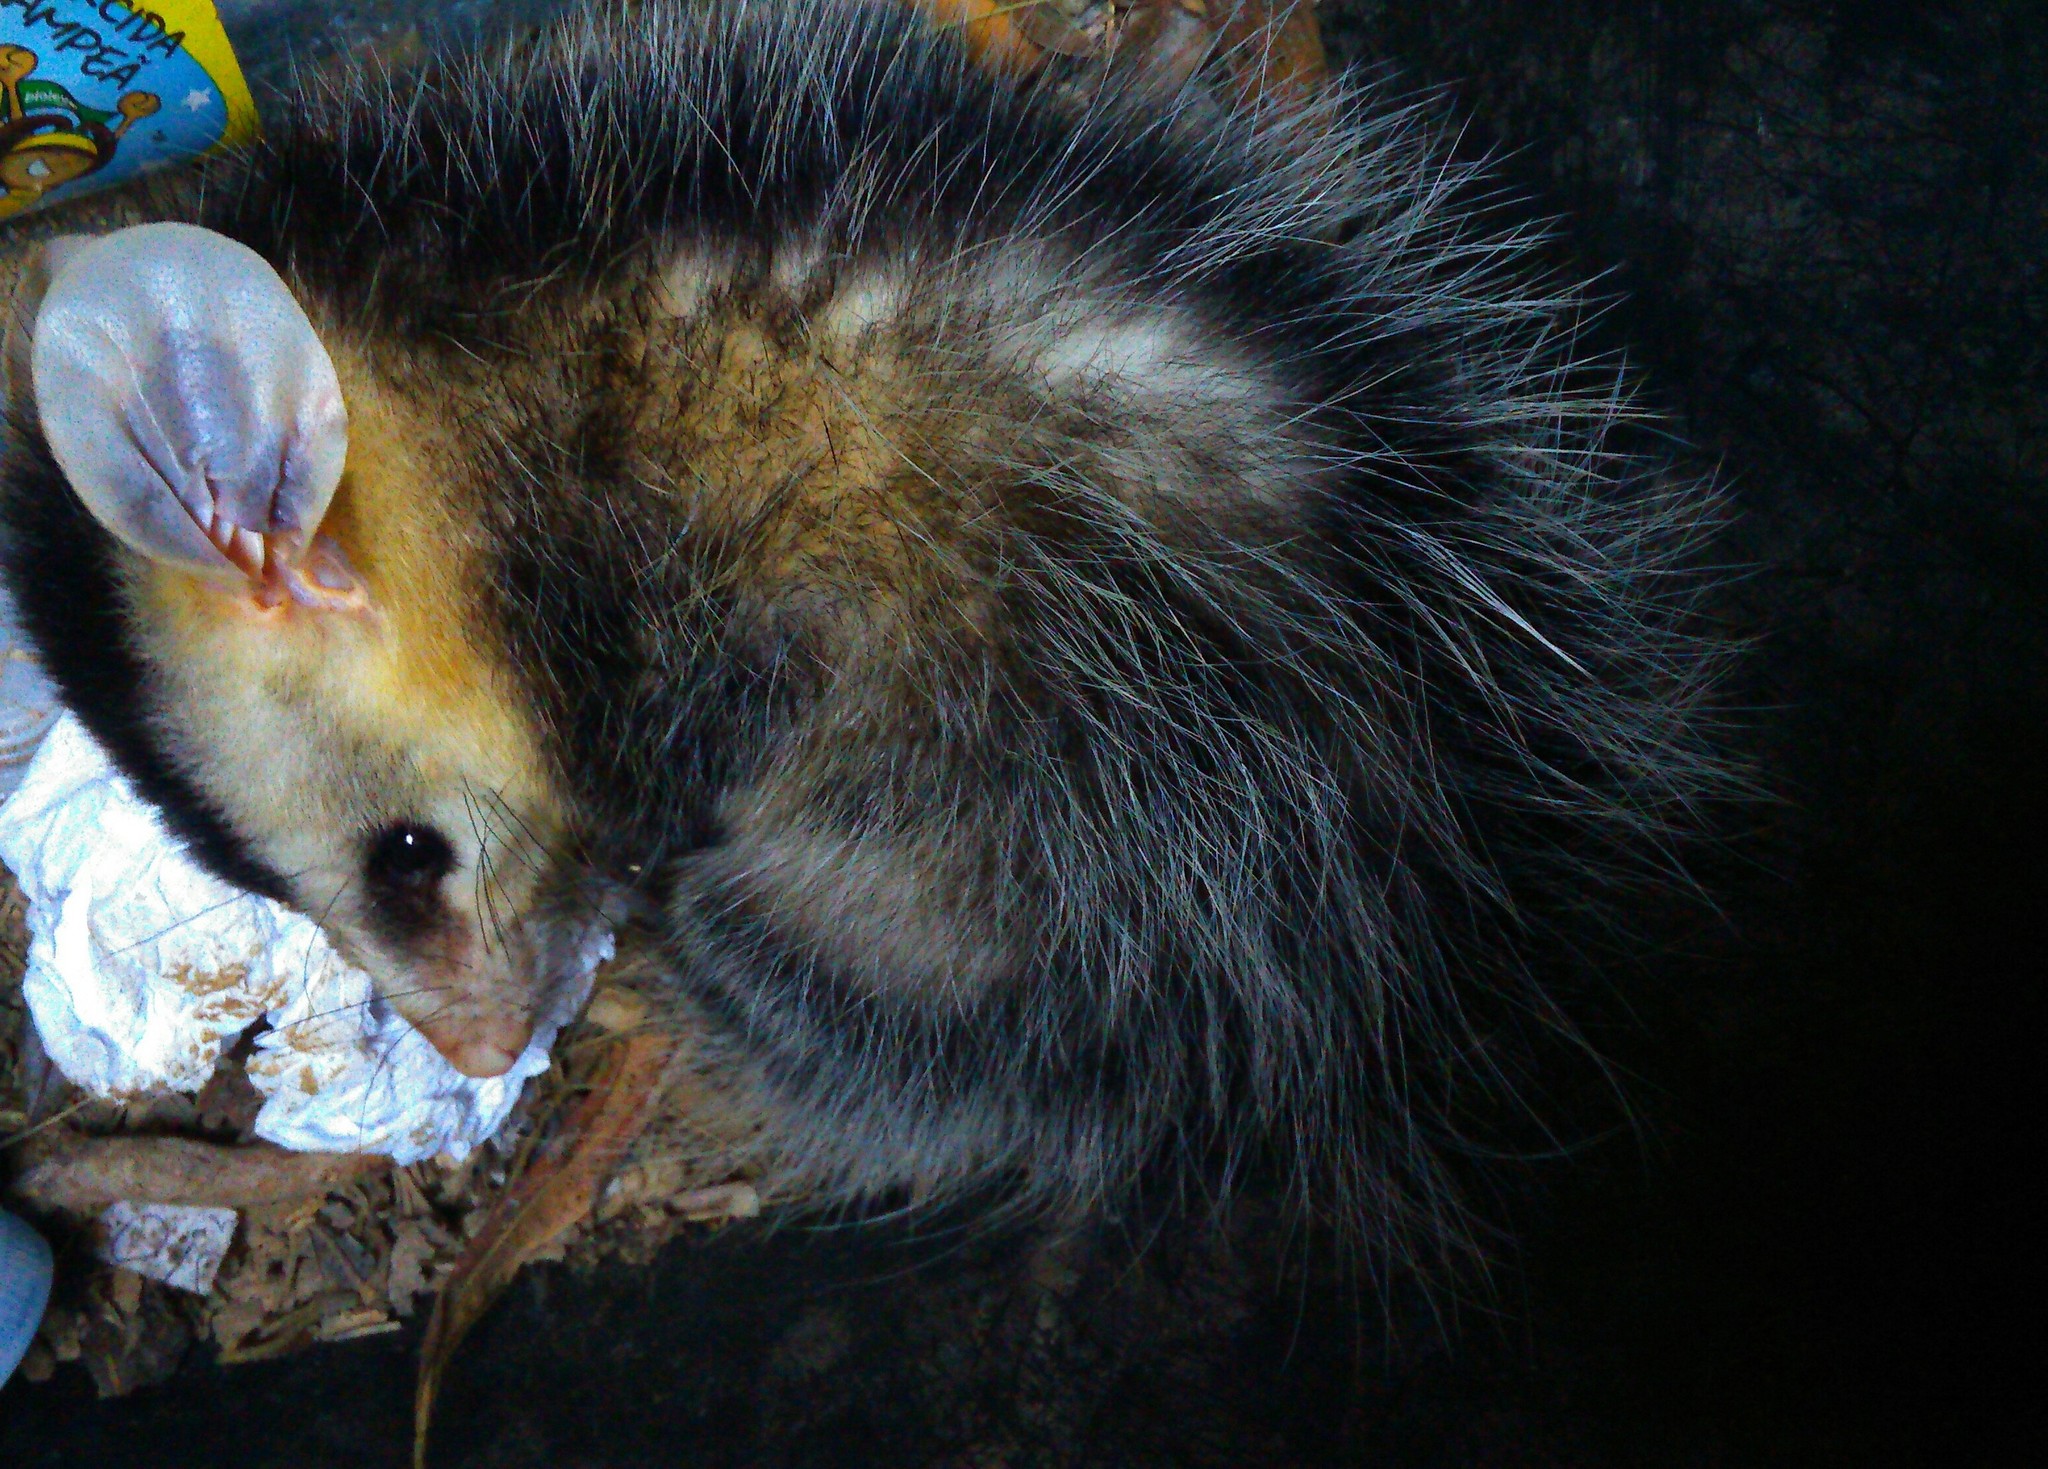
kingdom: Animalia
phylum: Chordata
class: Mammalia
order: Didelphimorphia
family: Didelphidae
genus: Didelphis
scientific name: Didelphis albiventris
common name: White-eared opossum
